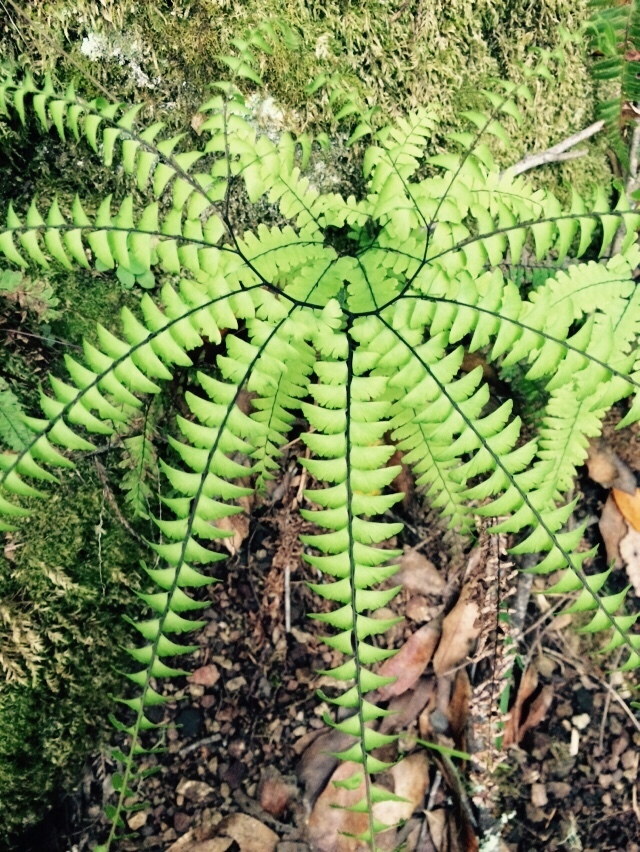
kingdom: Plantae
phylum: Tracheophyta
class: Polypodiopsida
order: Polypodiales
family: Pteridaceae
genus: Adiantum
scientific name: Adiantum aleuticum
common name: Aleutian maidenhair fern
